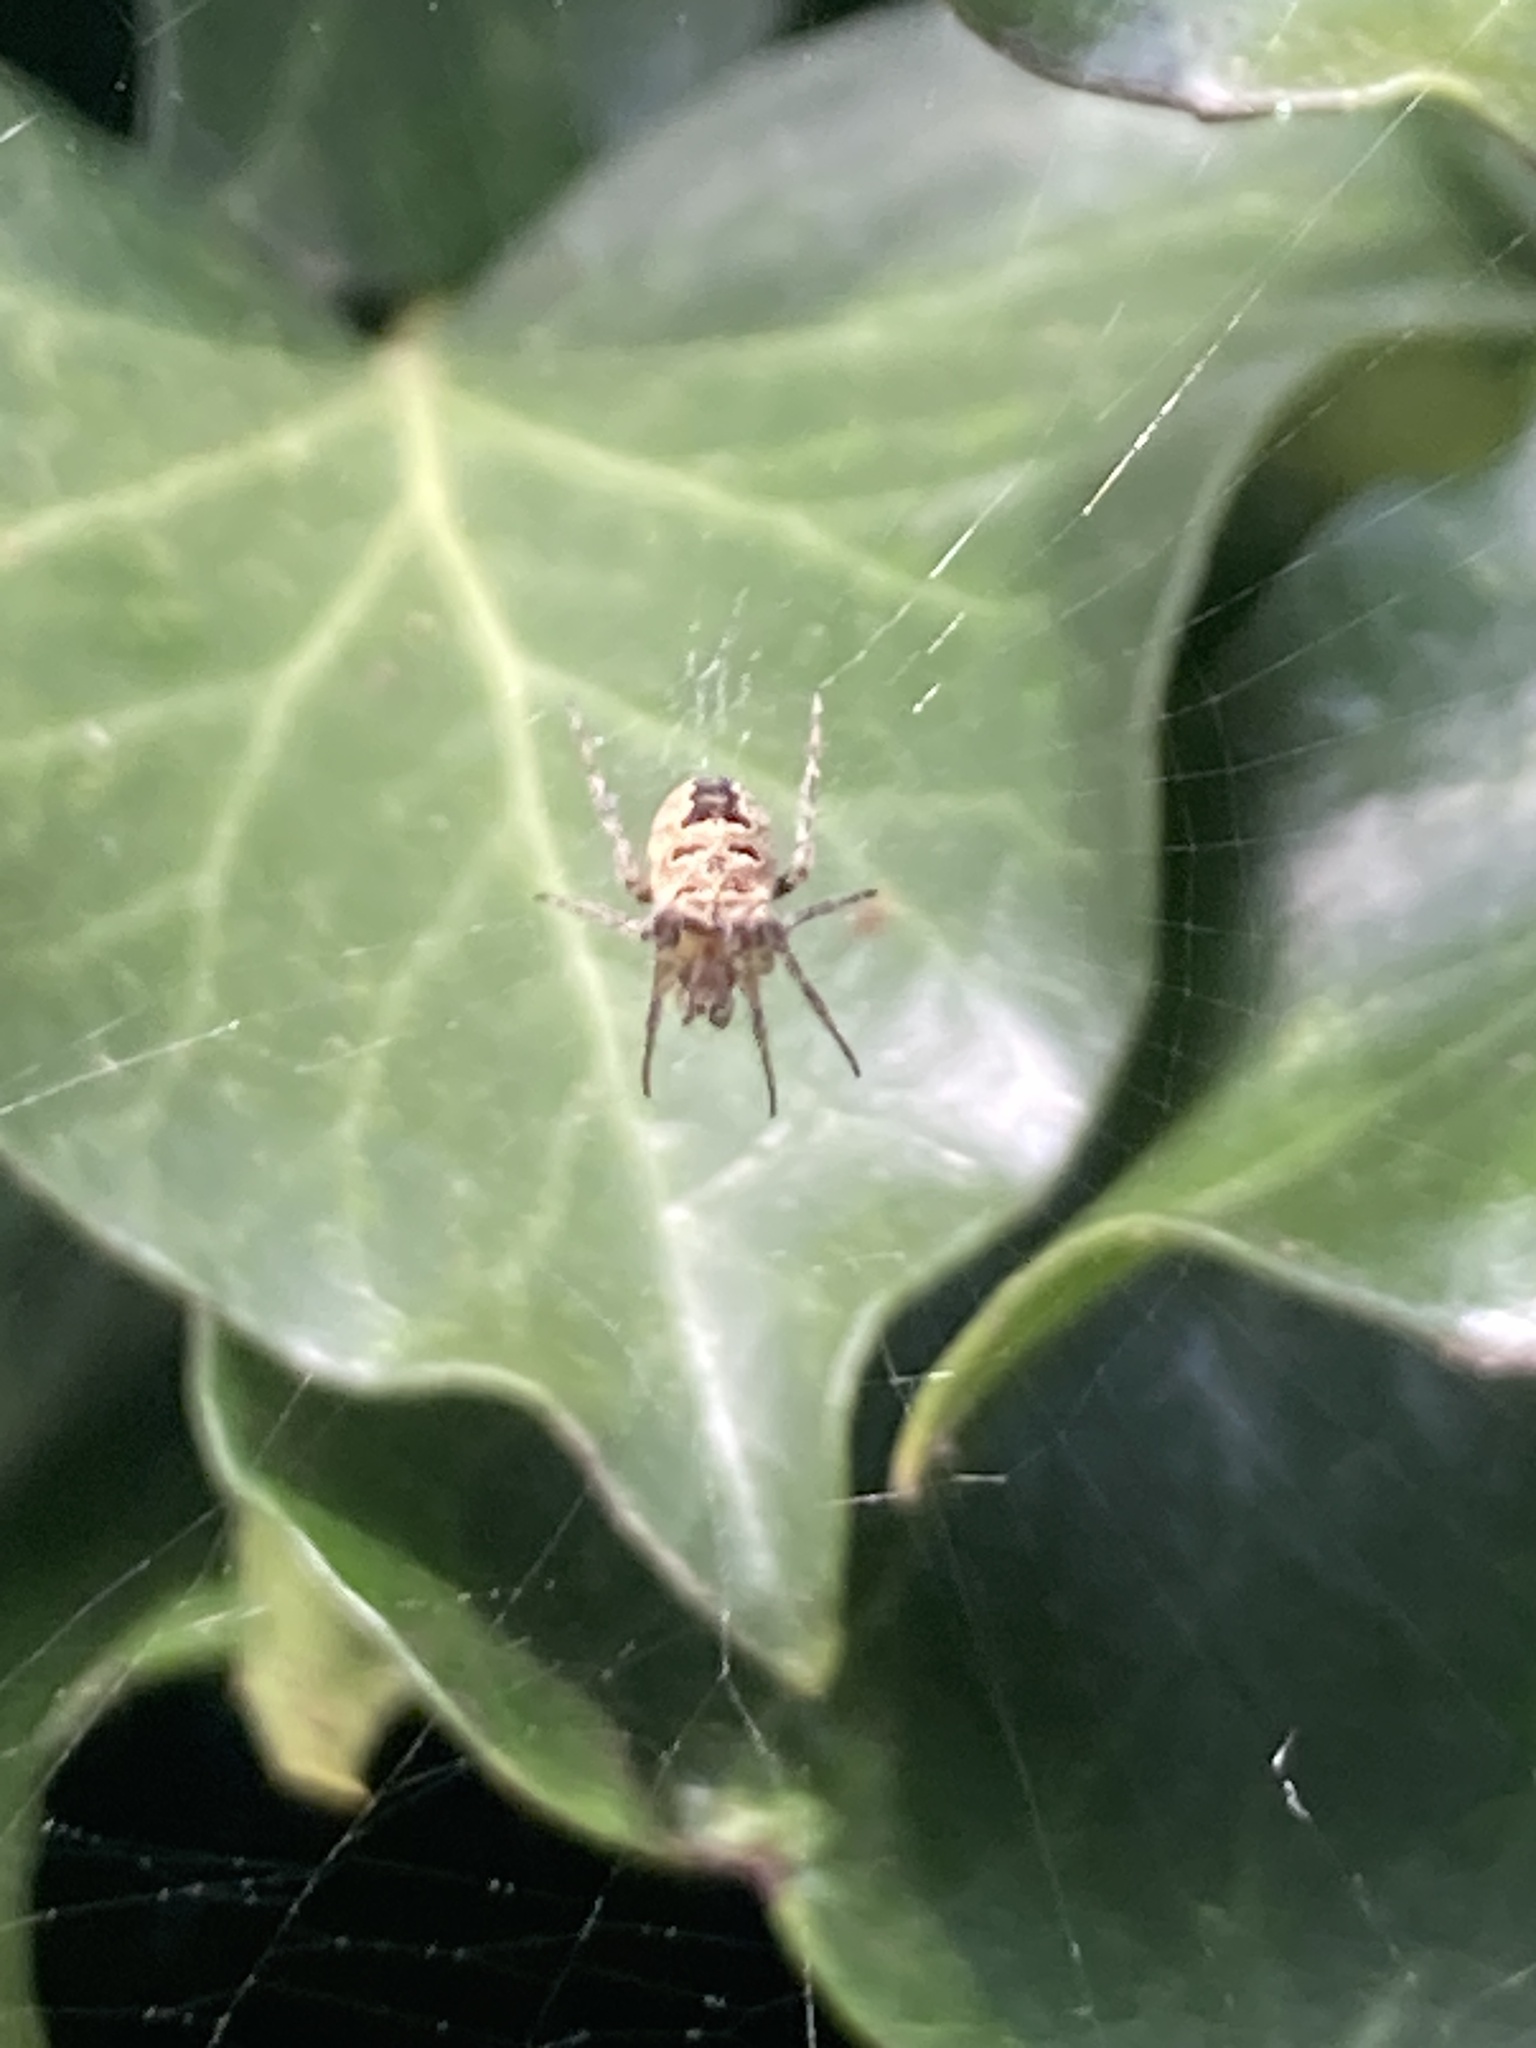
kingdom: Animalia
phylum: Arthropoda
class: Arachnida
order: Araneae
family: Araneidae
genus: Zilla
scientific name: Zilla diodia
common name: Zilla diodia
